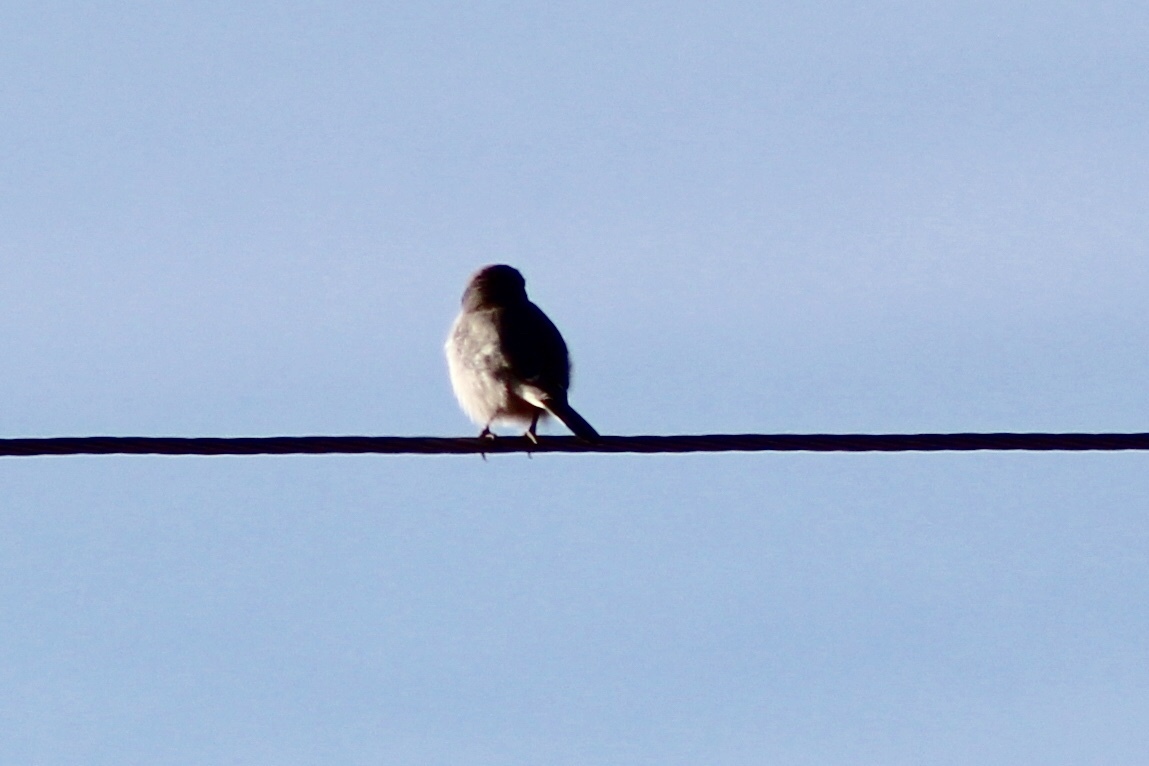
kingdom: Animalia
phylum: Chordata
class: Aves
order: Passeriformes
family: Laniidae
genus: Lanius
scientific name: Lanius ludovicianus
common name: Loggerhead shrike
